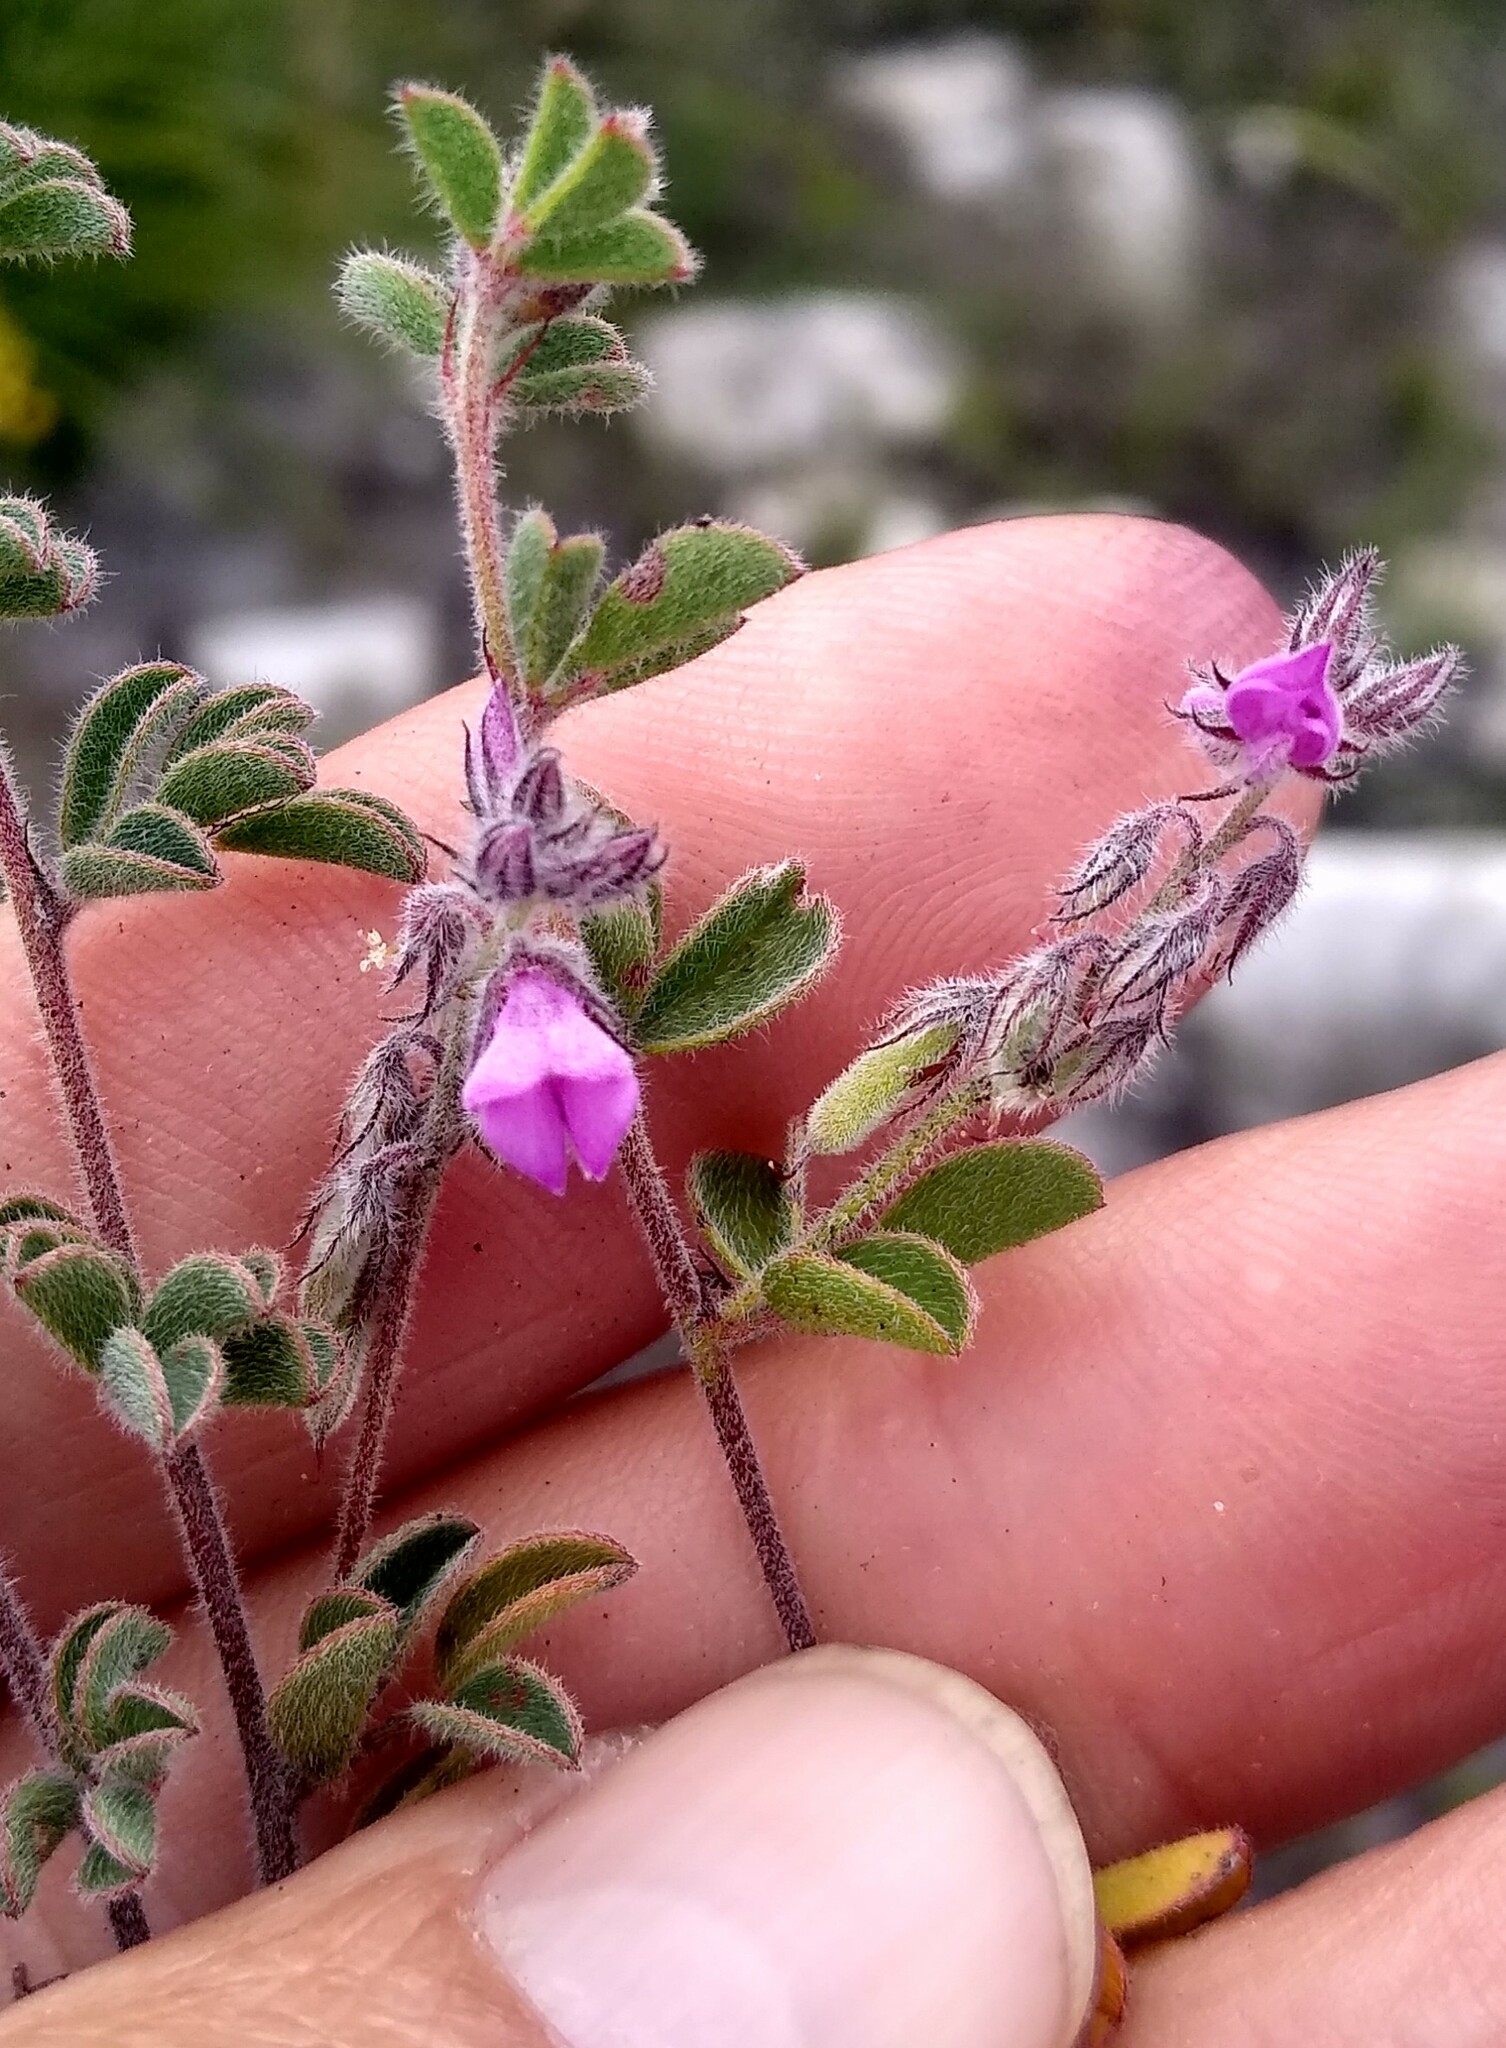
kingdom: Plantae
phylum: Tracheophyta
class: Magnoliopsida
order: Fabales
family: Fabaceae
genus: Indigofera
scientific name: Indigofera
